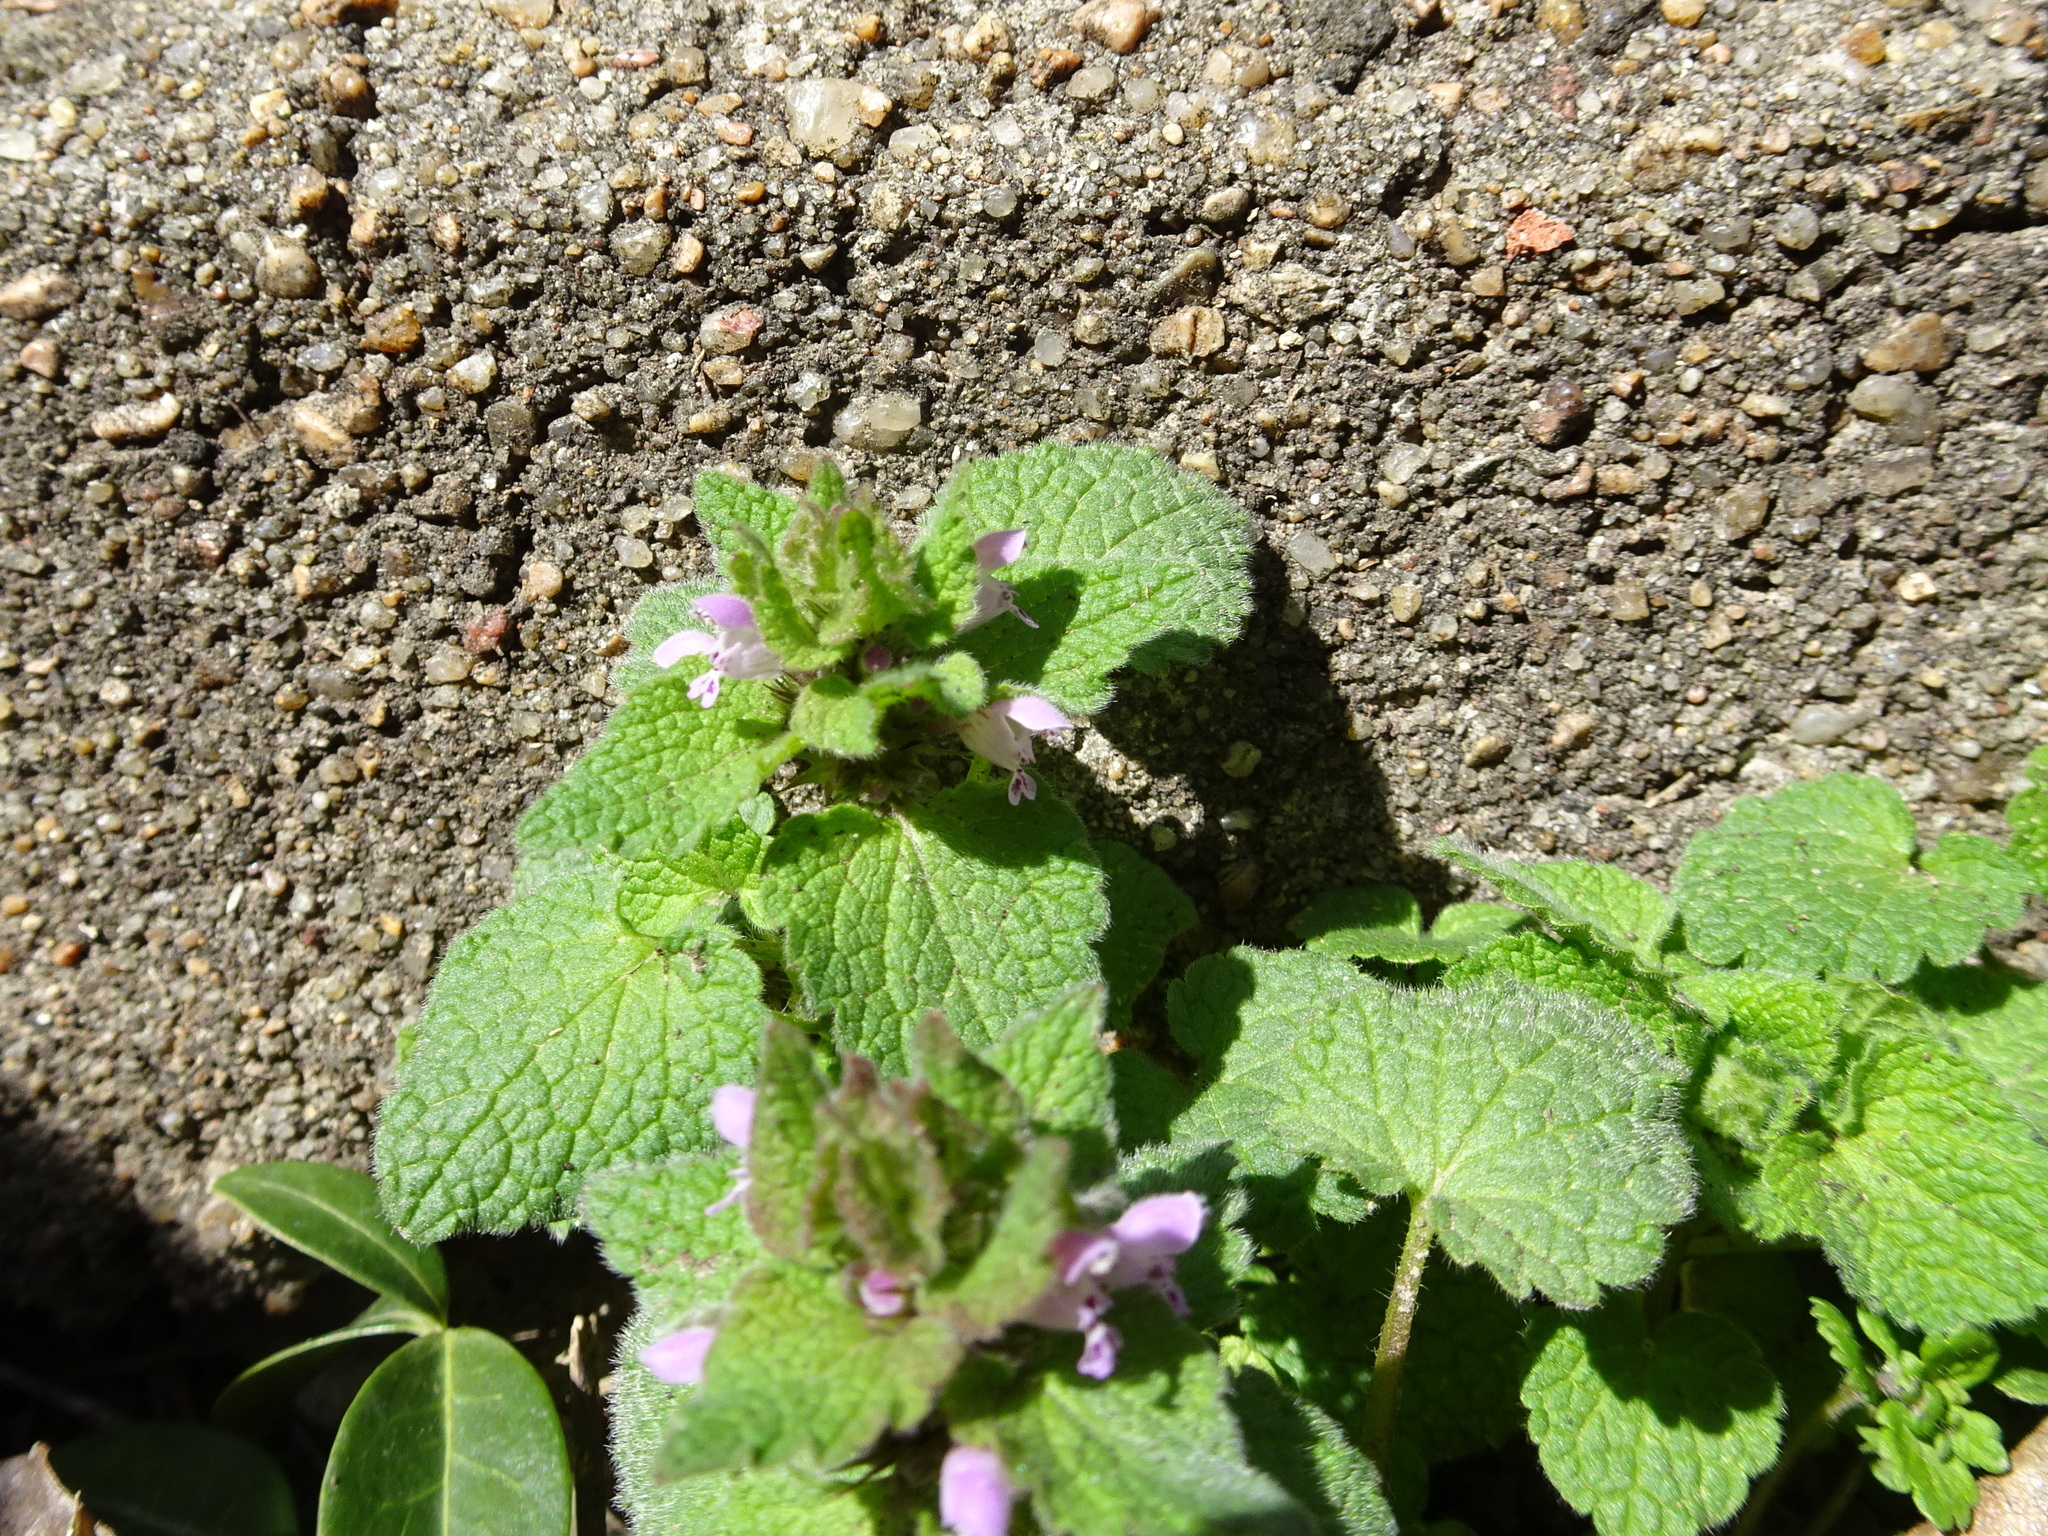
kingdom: Plantae
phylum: Tracheophyta
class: Magnoliopsida
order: Lamiales
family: Lamiaceae
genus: Lamium
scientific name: Lamium purpureum
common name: Red dead-nettle
